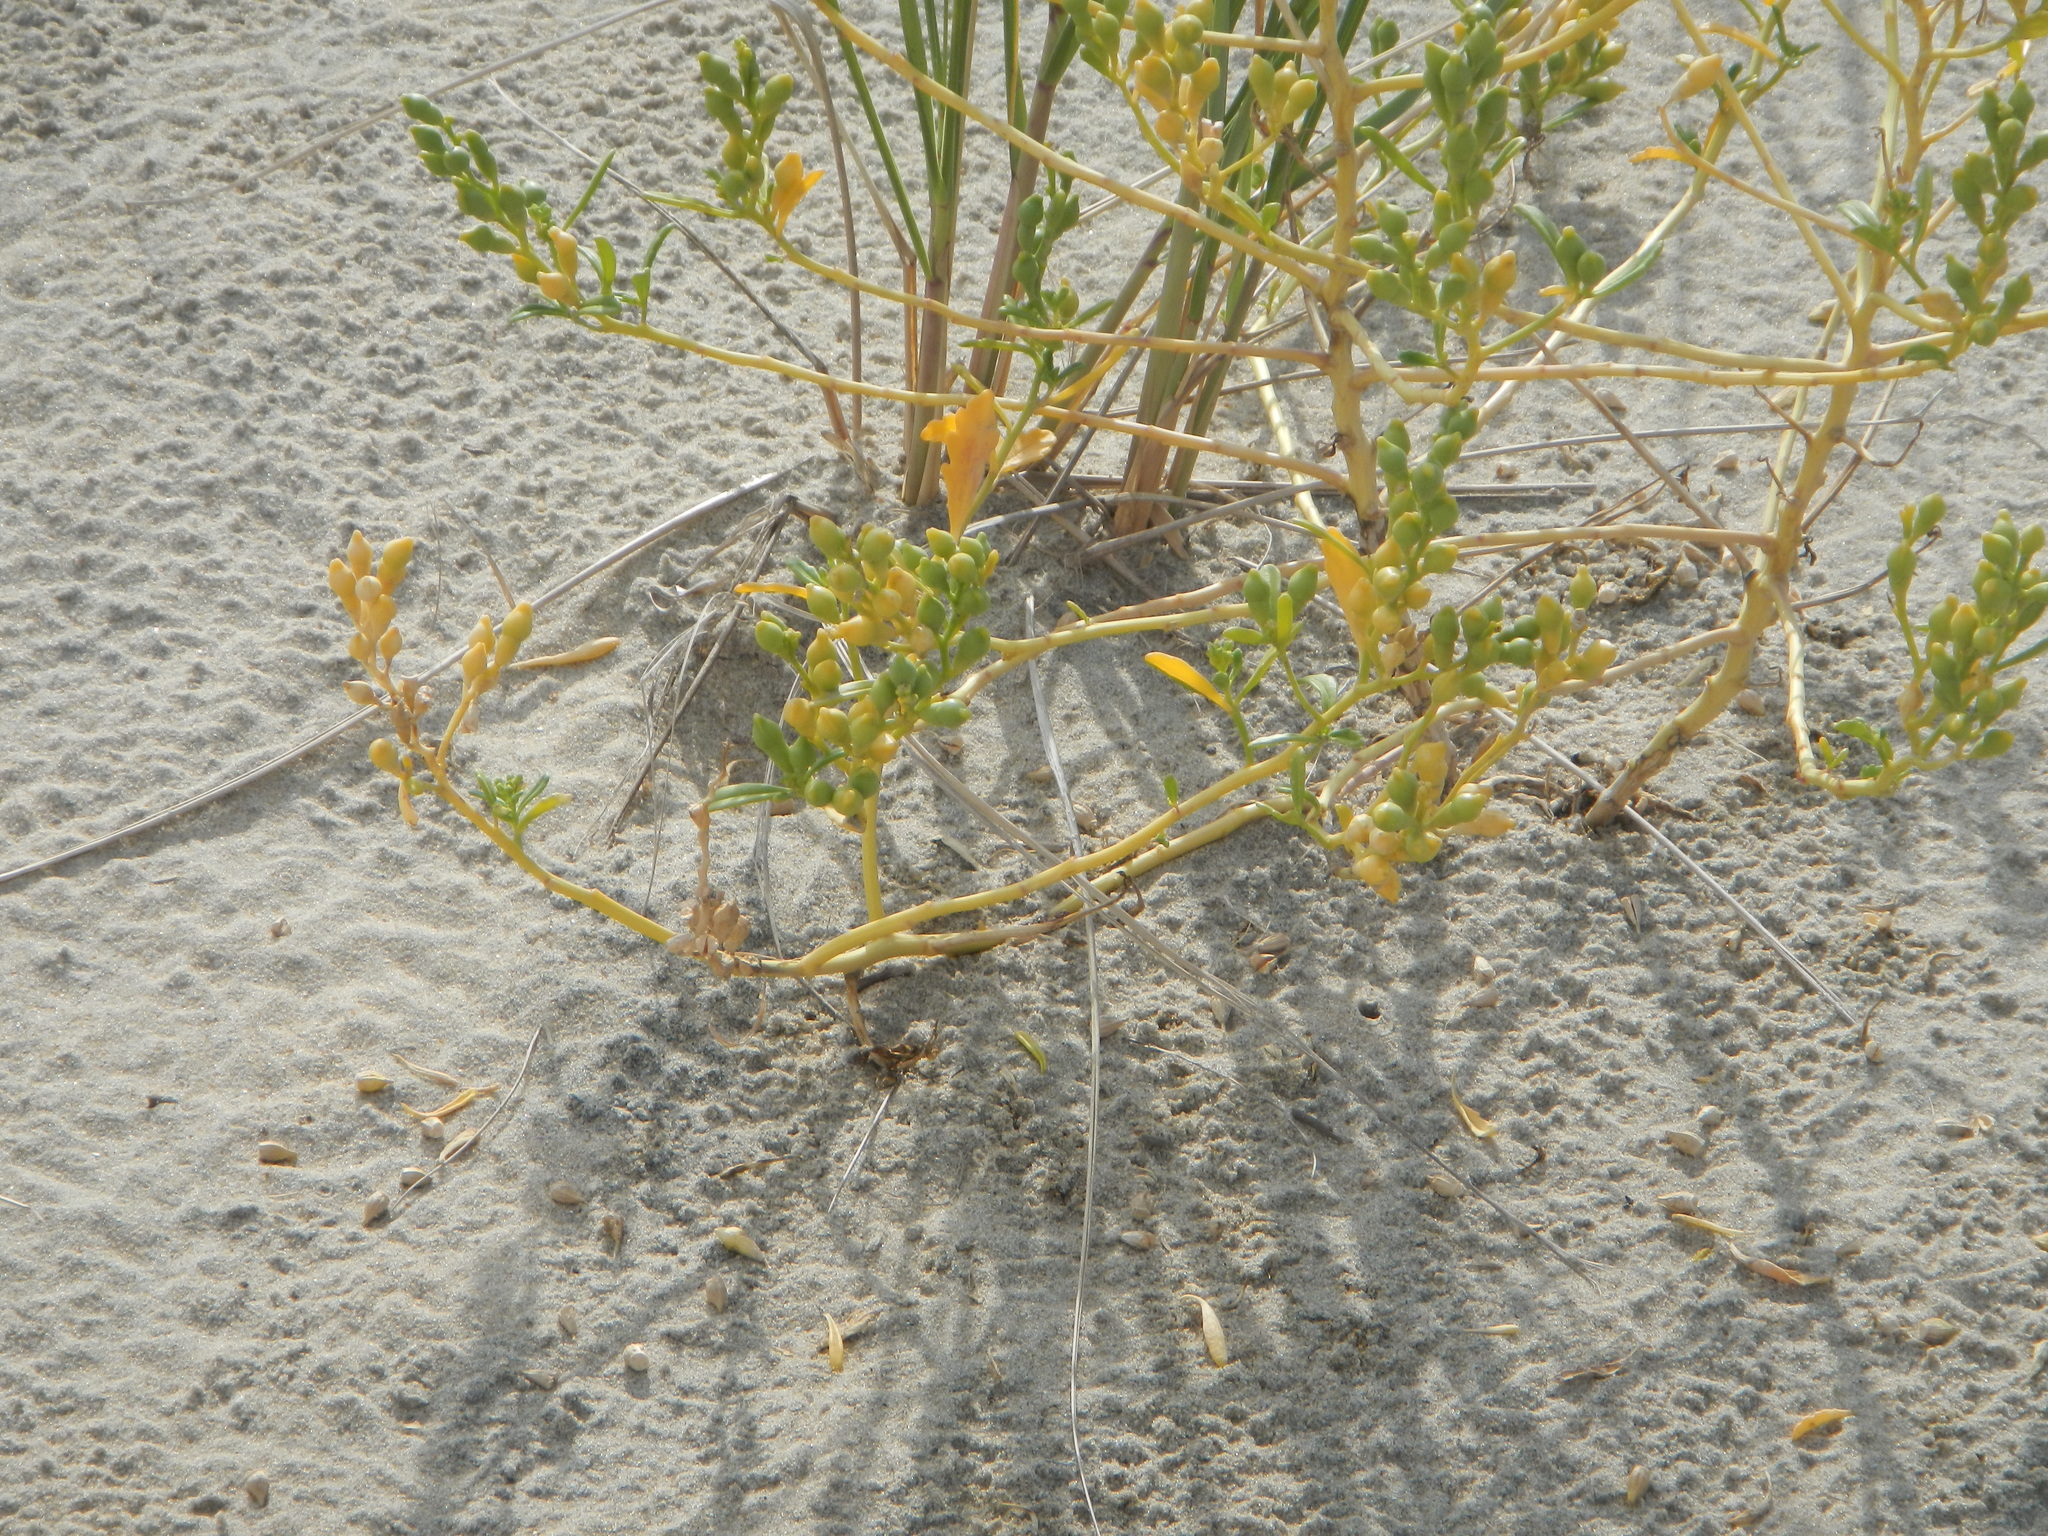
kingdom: Plantae
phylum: Tracheophyta
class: Magnoliopsida
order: Brassicales
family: Brassicaceae
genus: Cakile
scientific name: Cakile edentula
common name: American sea rocket
